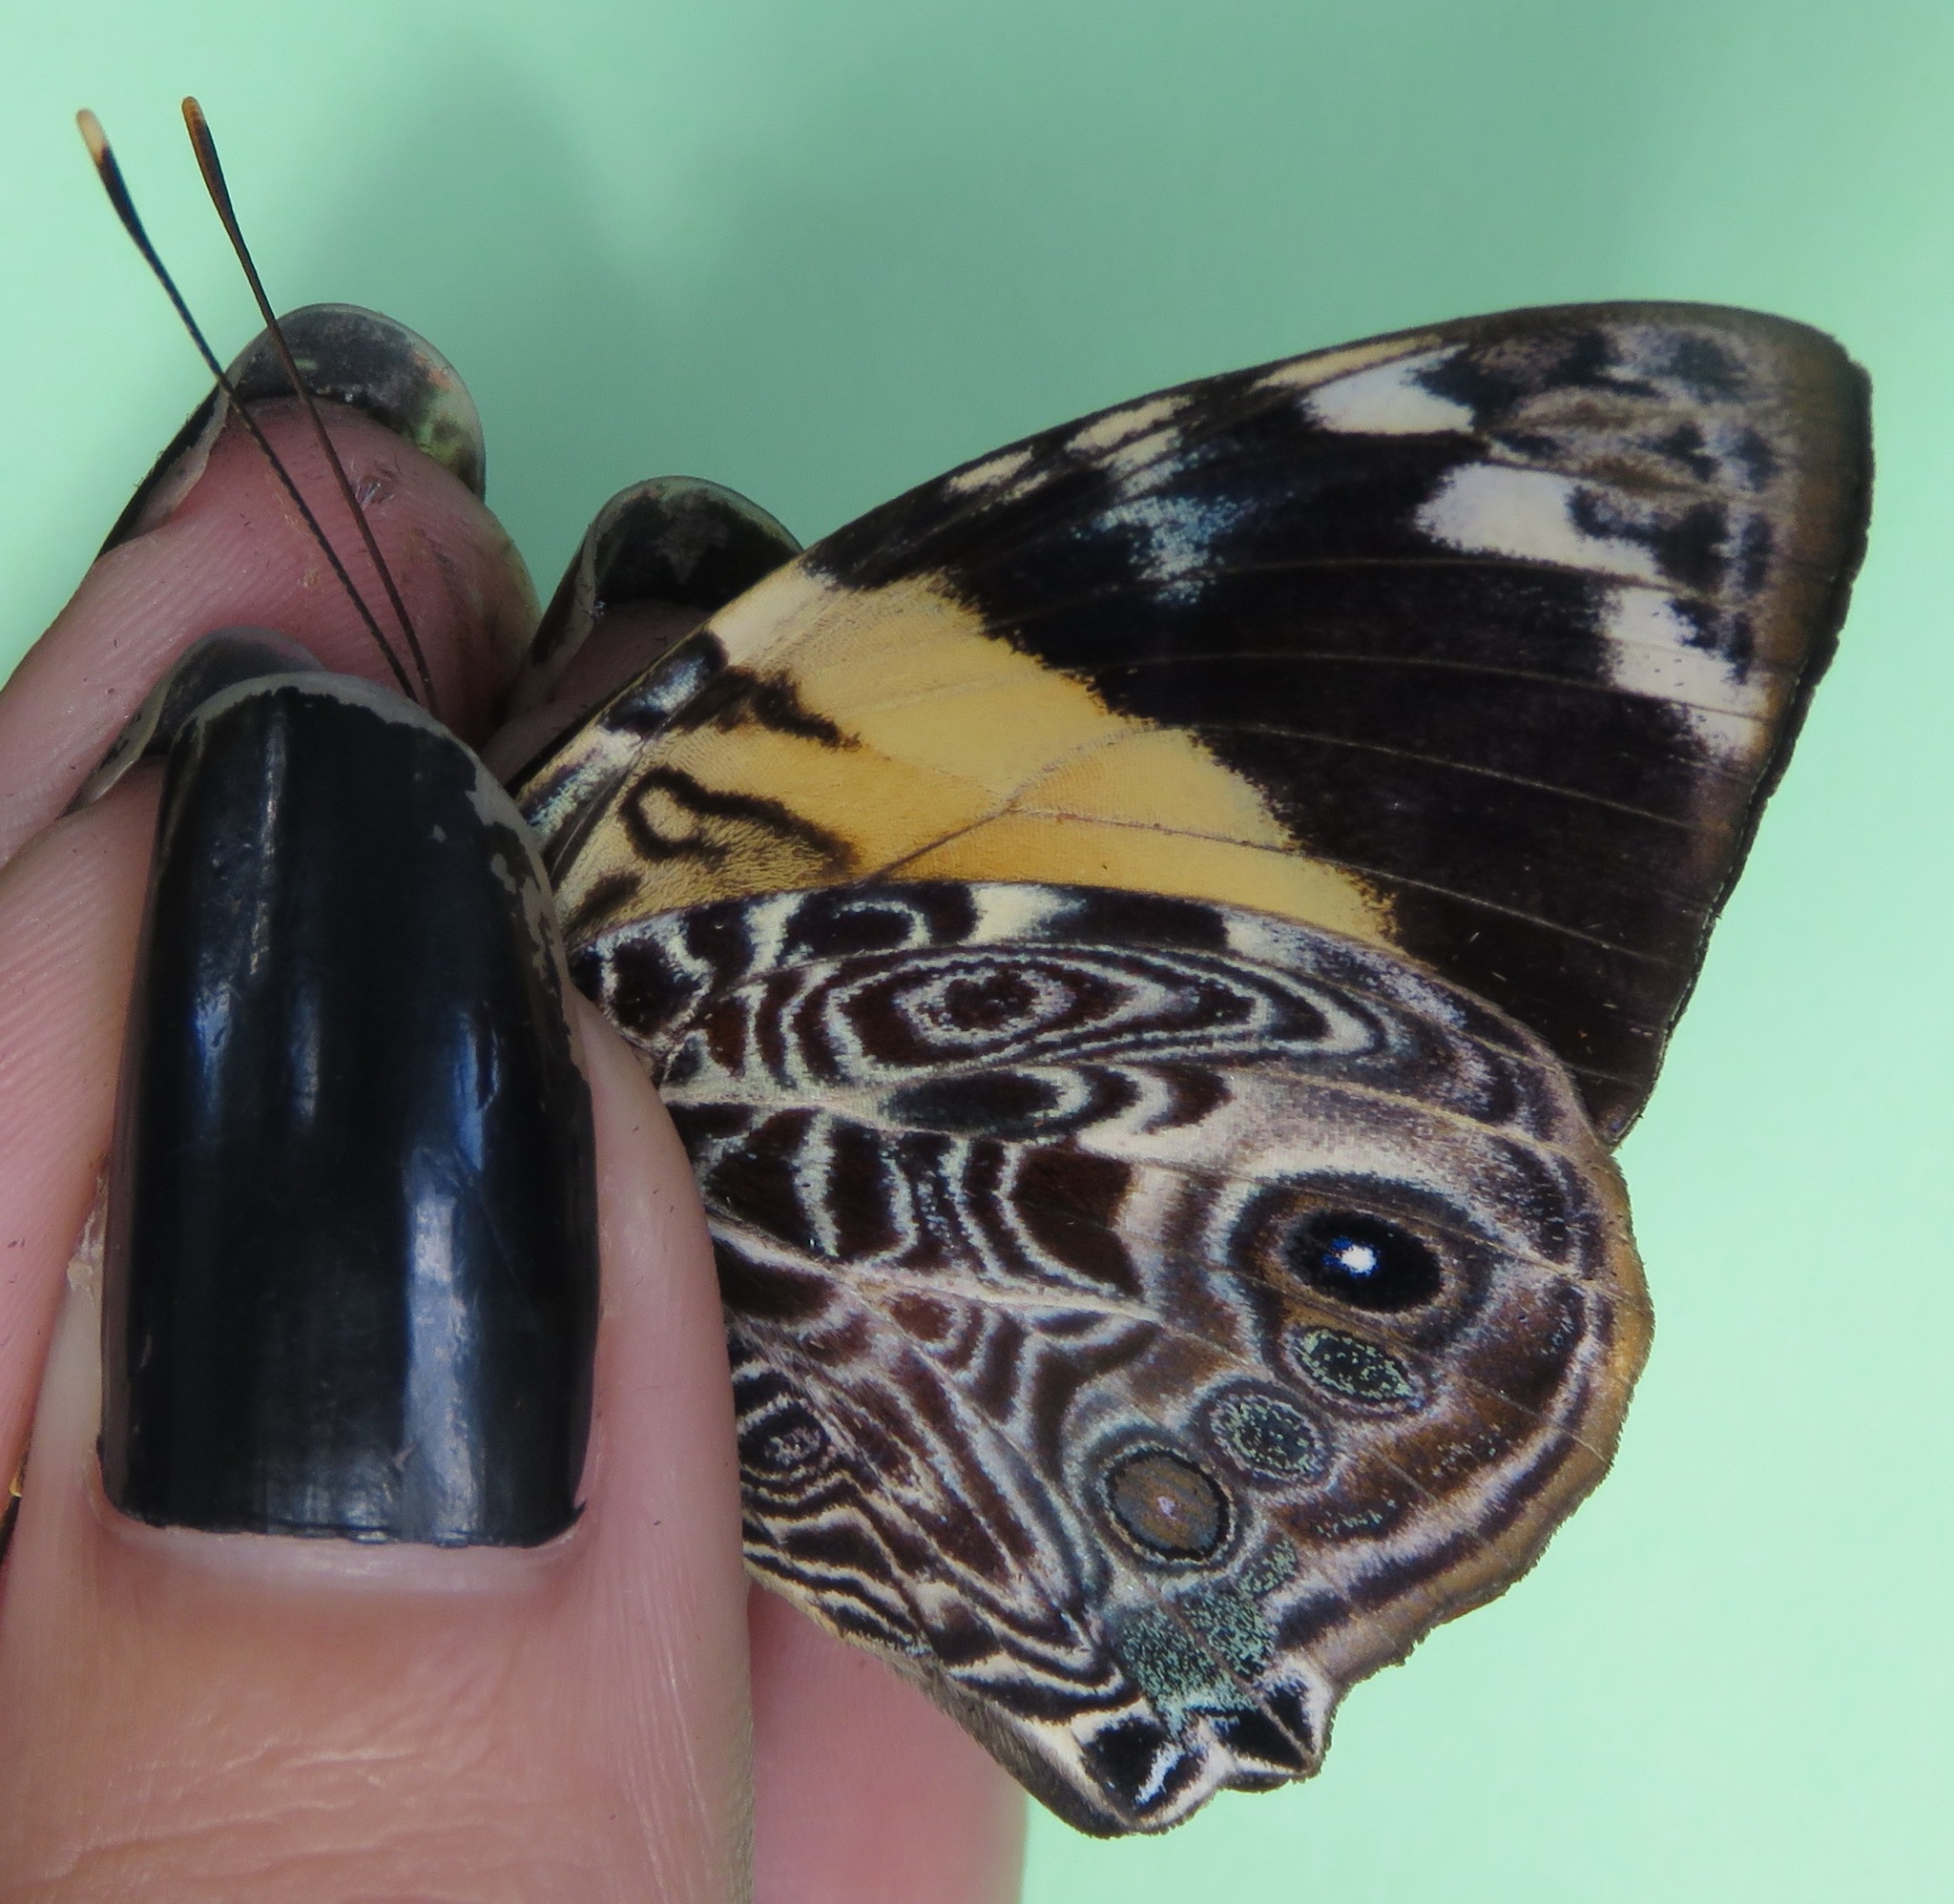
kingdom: Animalia
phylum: Arthropoda
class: Insecta
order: Lepidoptera
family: Nymphalidae
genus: Smyrna
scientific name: Smyrna blomfildia
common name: Blomfild's beauty
